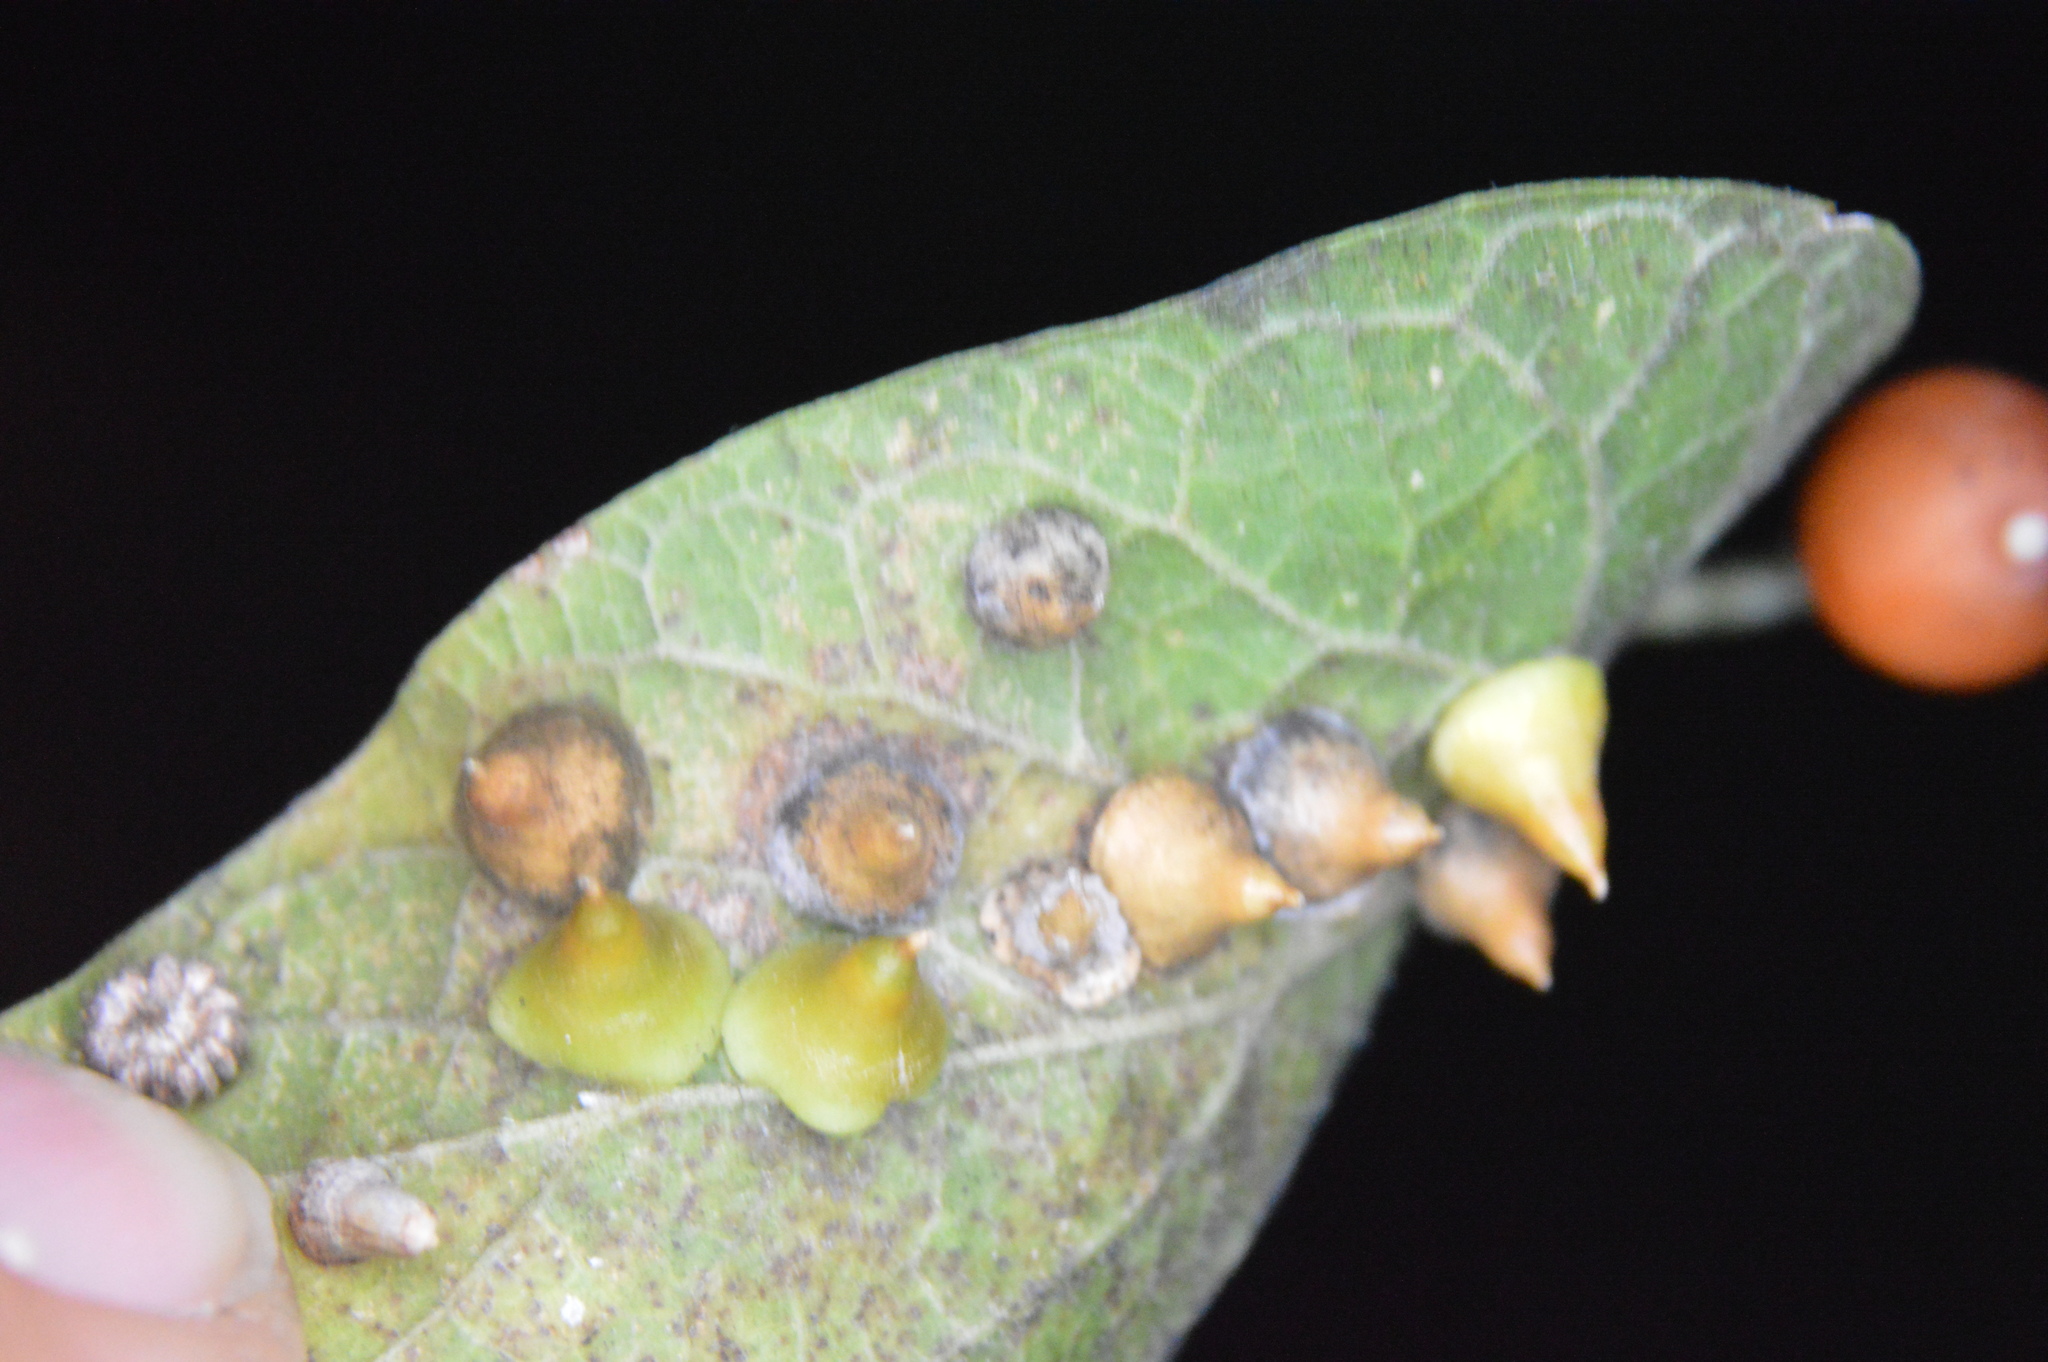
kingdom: Animalia
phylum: Arthropoda
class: Insecta
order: Diptera
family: Cecidomyiidae
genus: Celticecis
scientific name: Celticecis spiniformis
